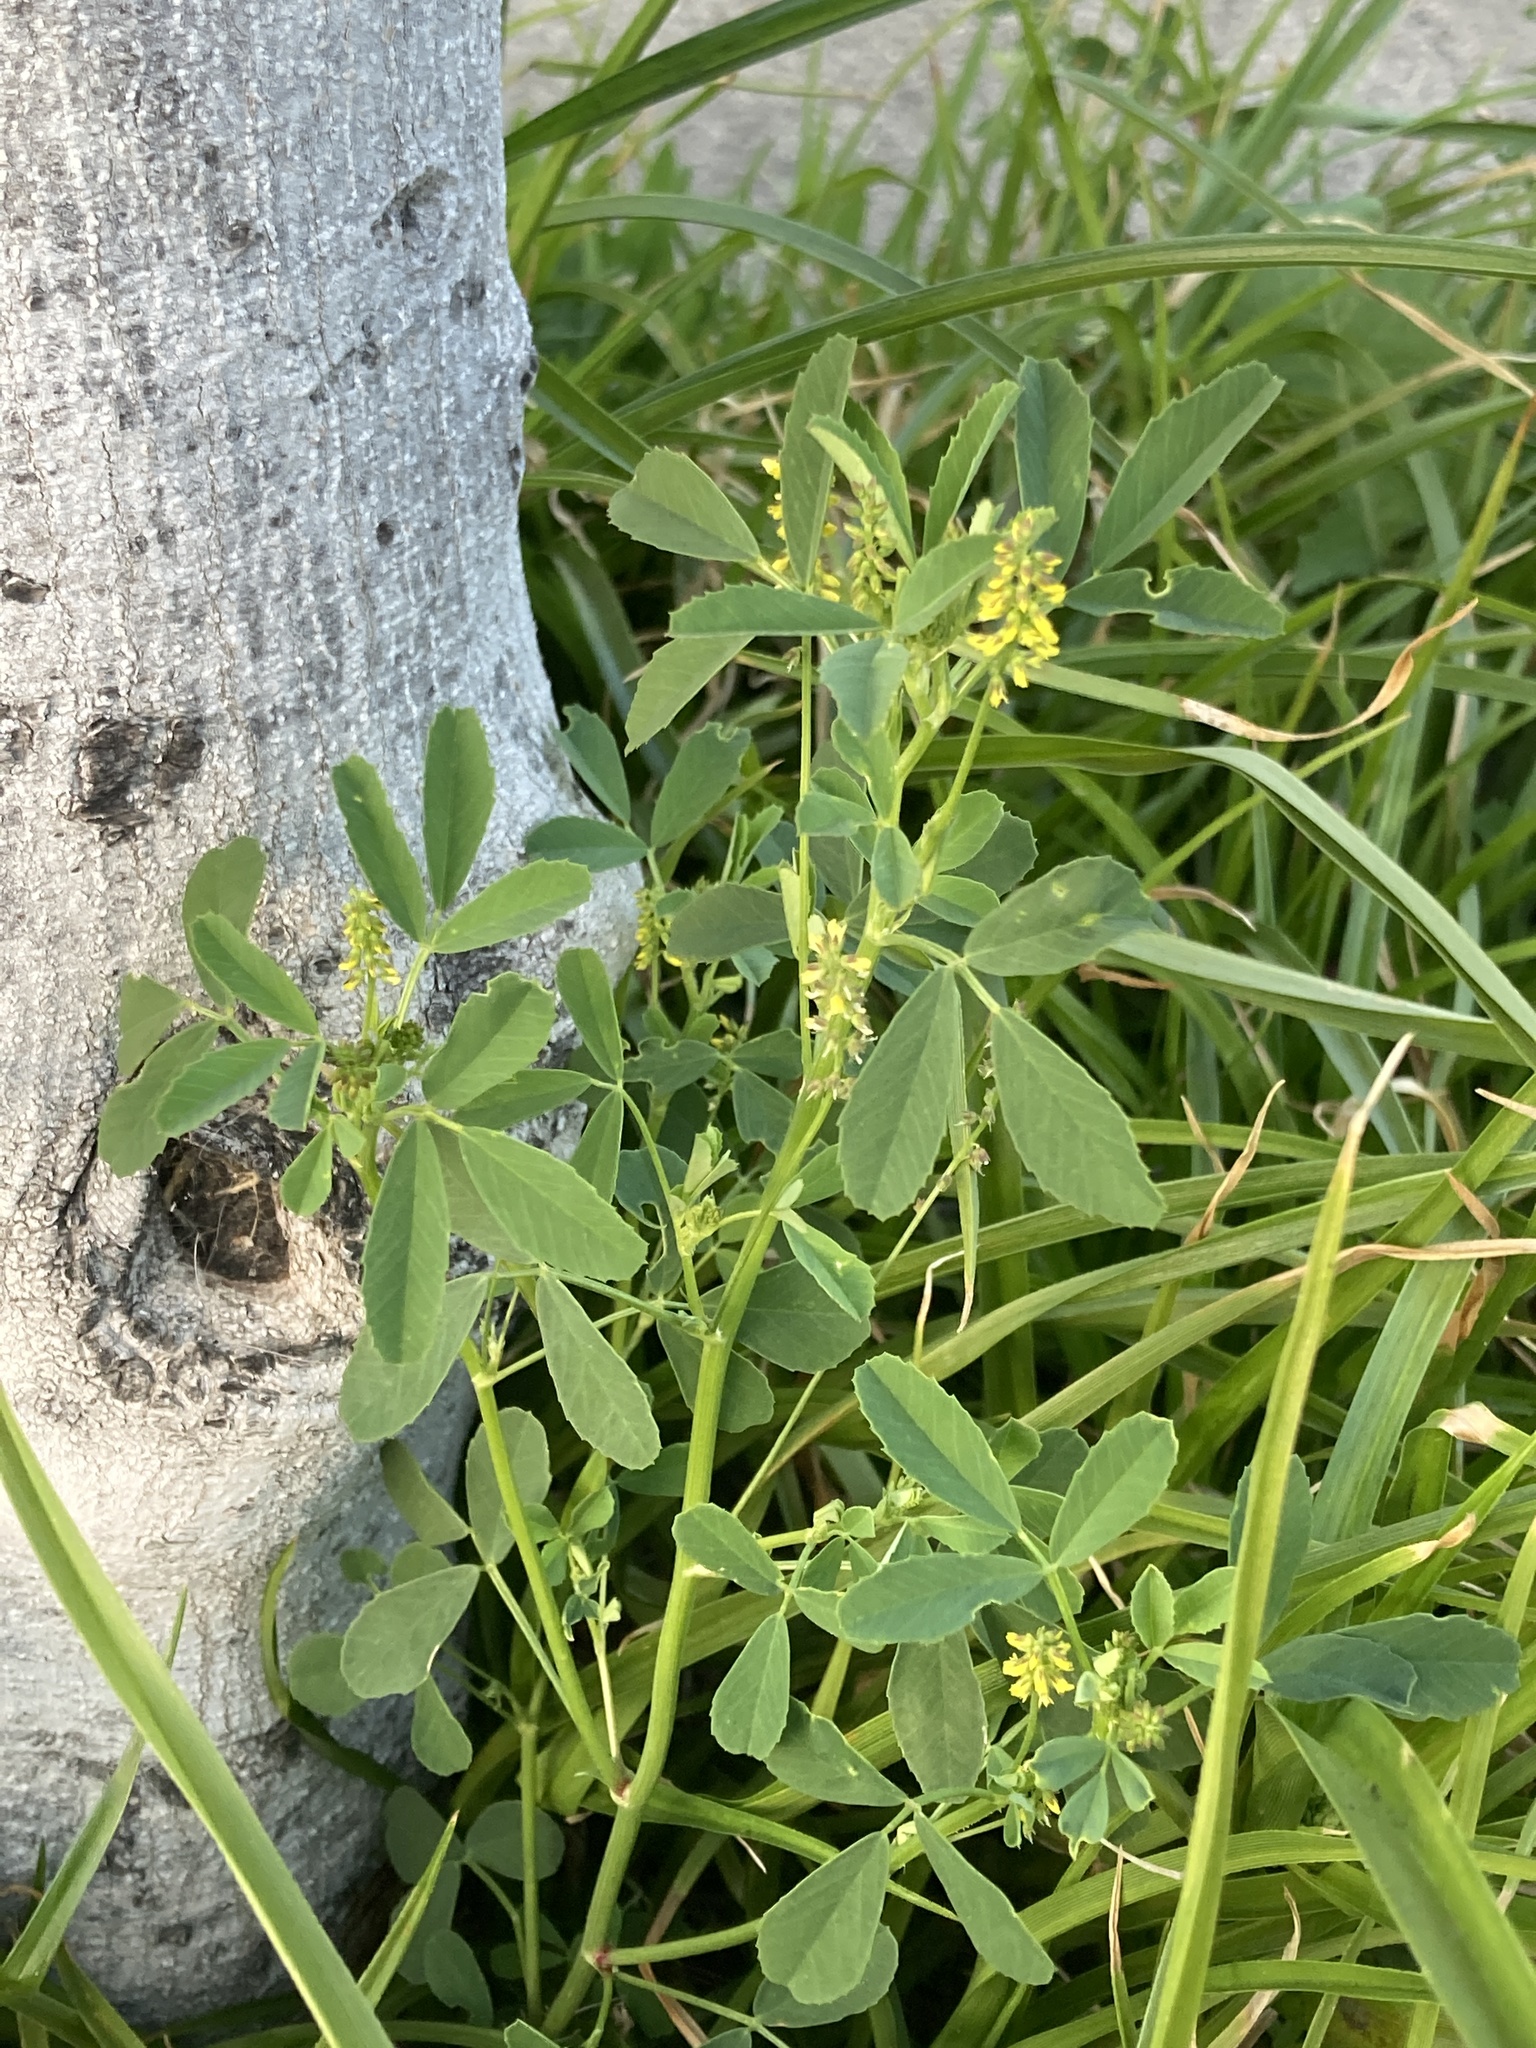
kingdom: Plantae
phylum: Tracheophyta
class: Magnoliopsida
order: Fabales
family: Fabaceae
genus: Melilotus
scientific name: Melilotus indicus
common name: Small melilot
